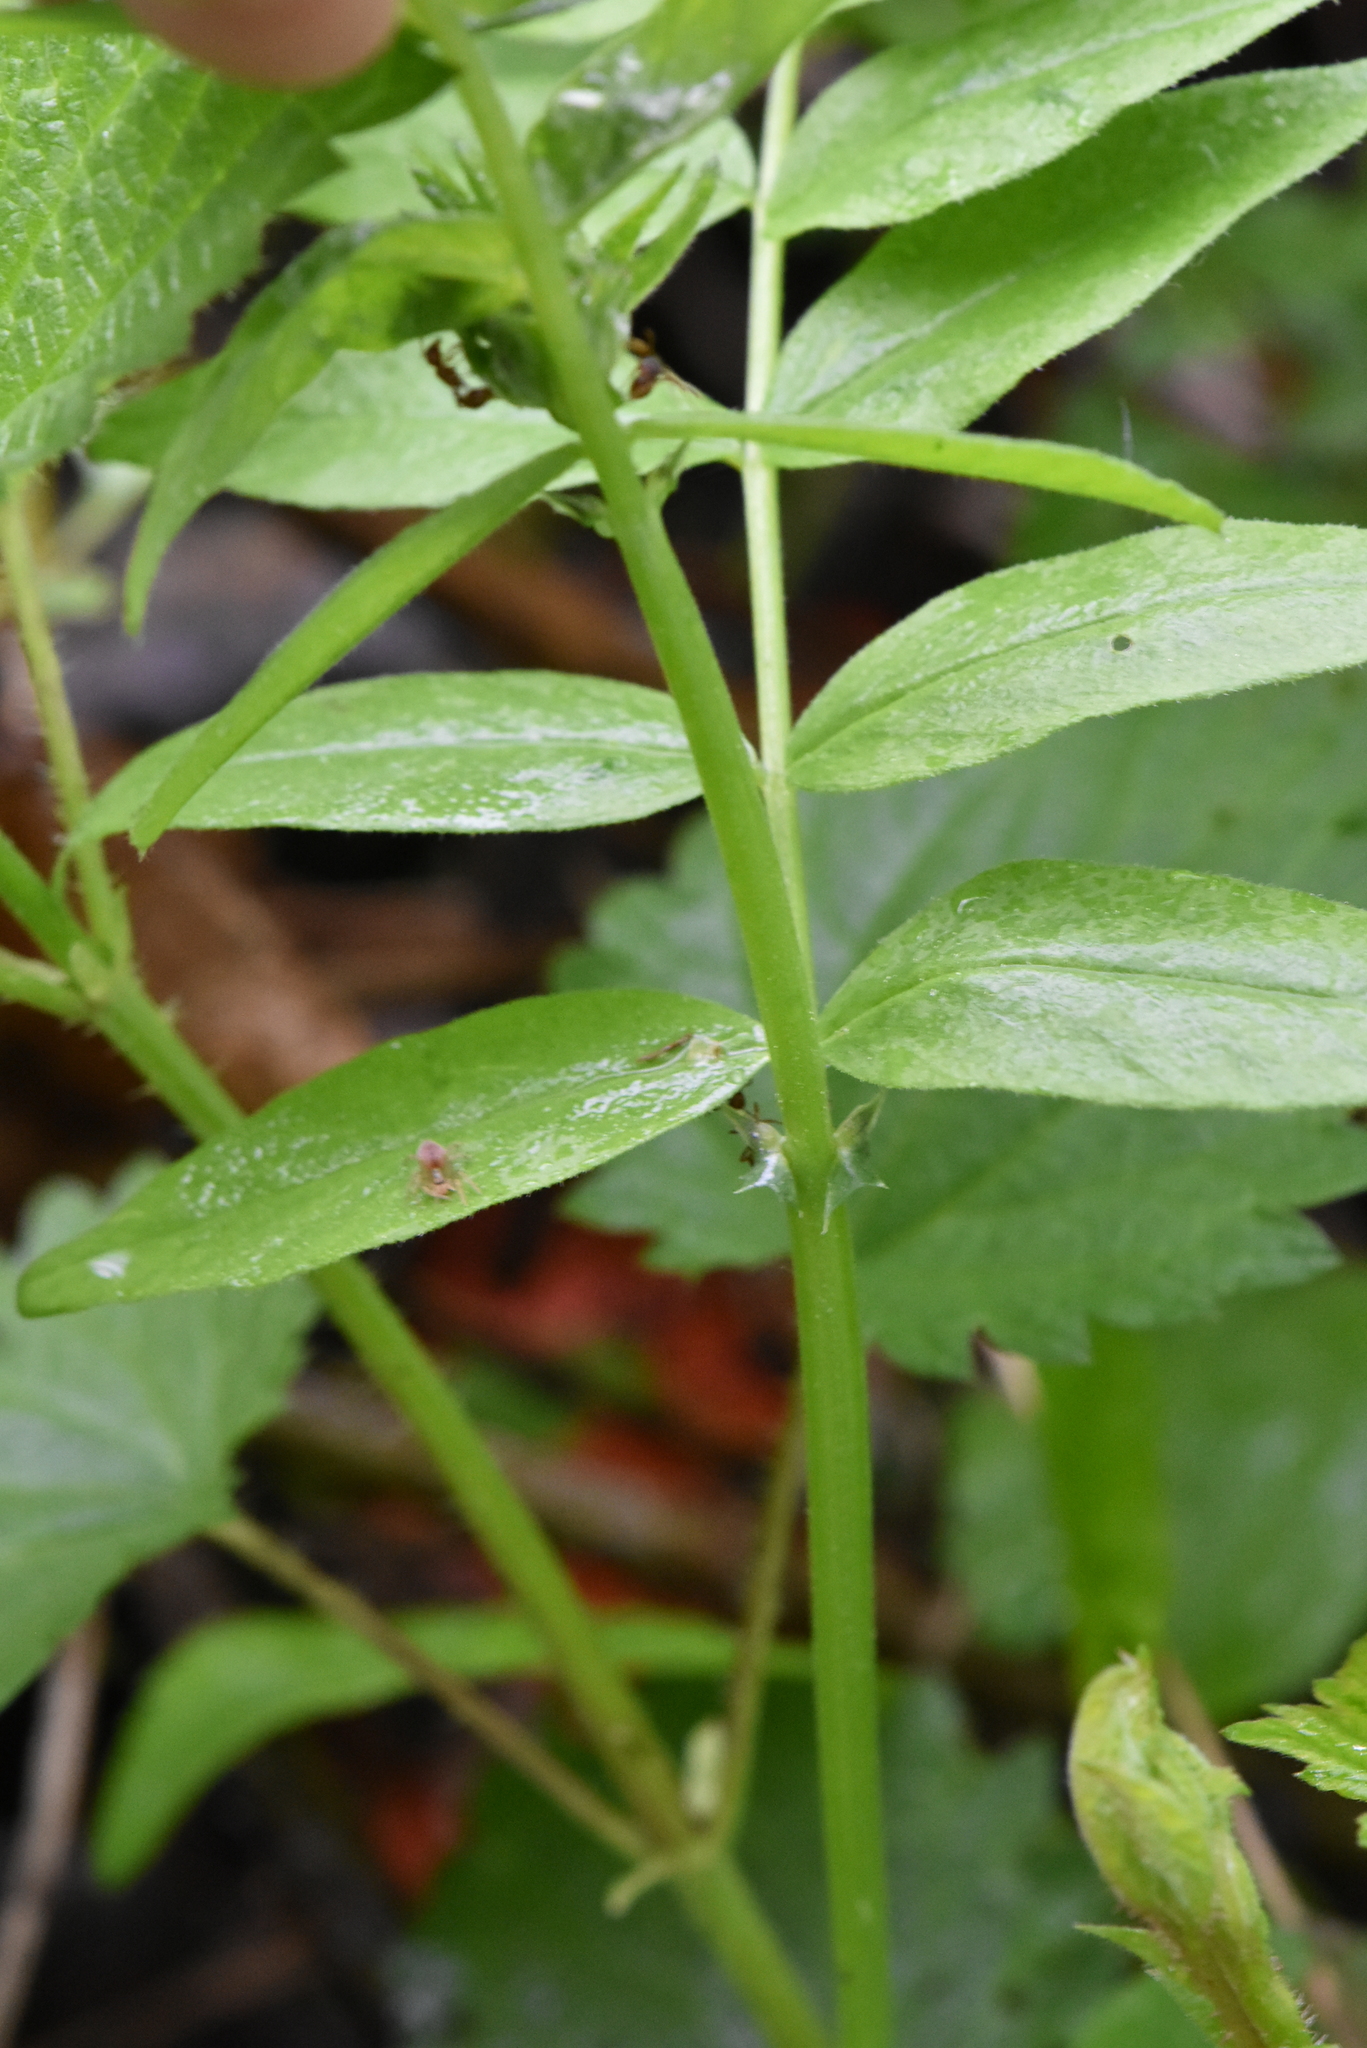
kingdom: Plantae
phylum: Tracheophyta
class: Magnoliopsida
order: Fabales
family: Fabaceae
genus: Vicia
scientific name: Vicia sepium
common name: Bush vetch
